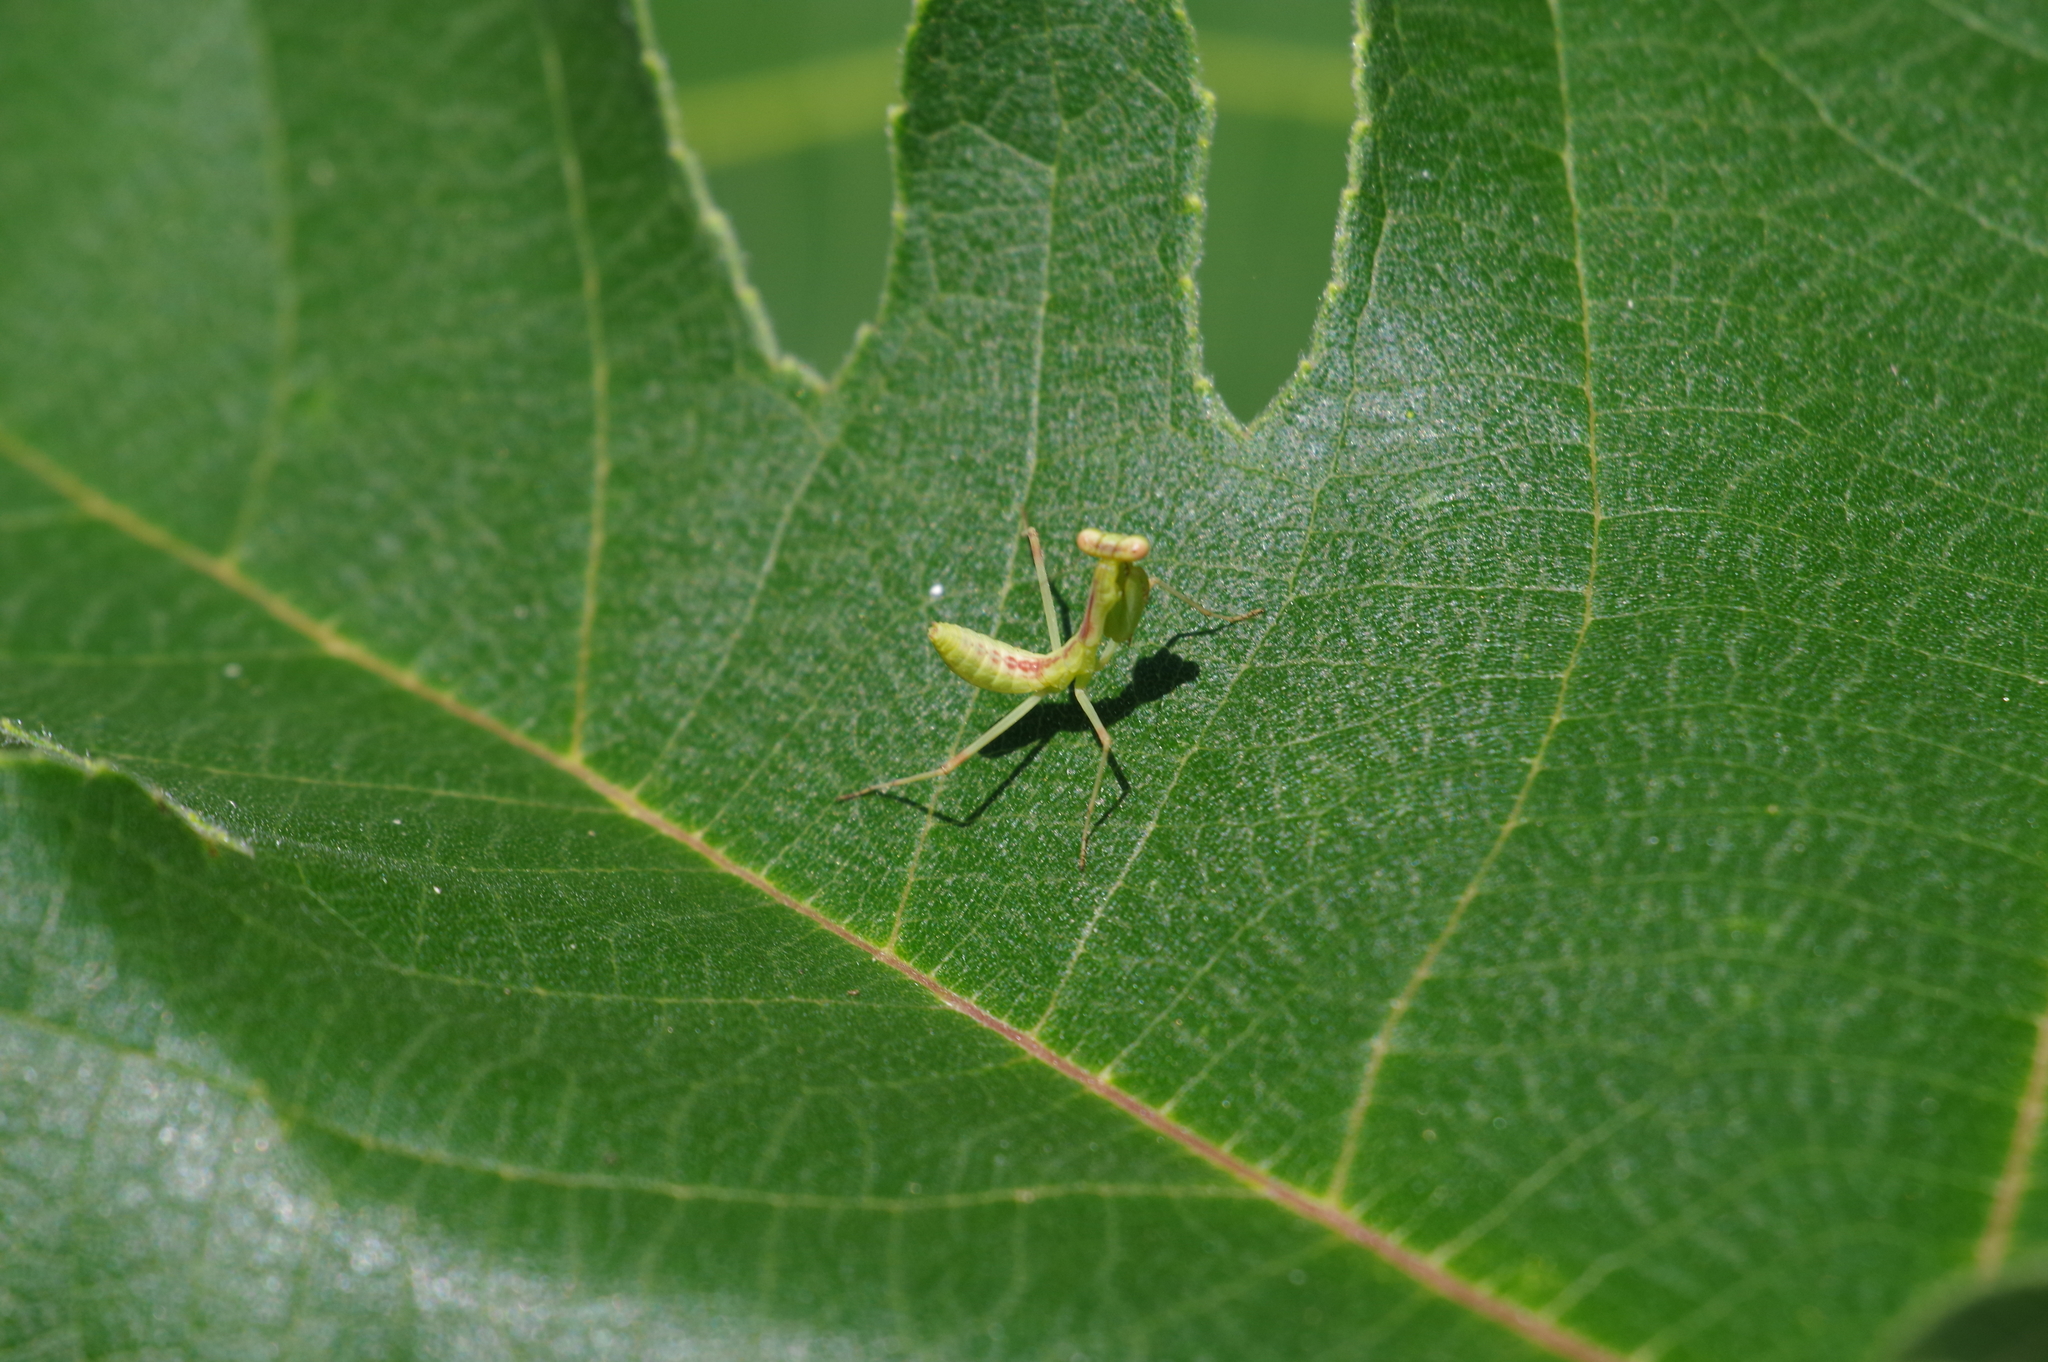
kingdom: Animalia
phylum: Arthropoda
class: Insecta
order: Mantodea
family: Mantidae
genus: Hierodula
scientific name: Hierodula patellifera
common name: Asian mantis
